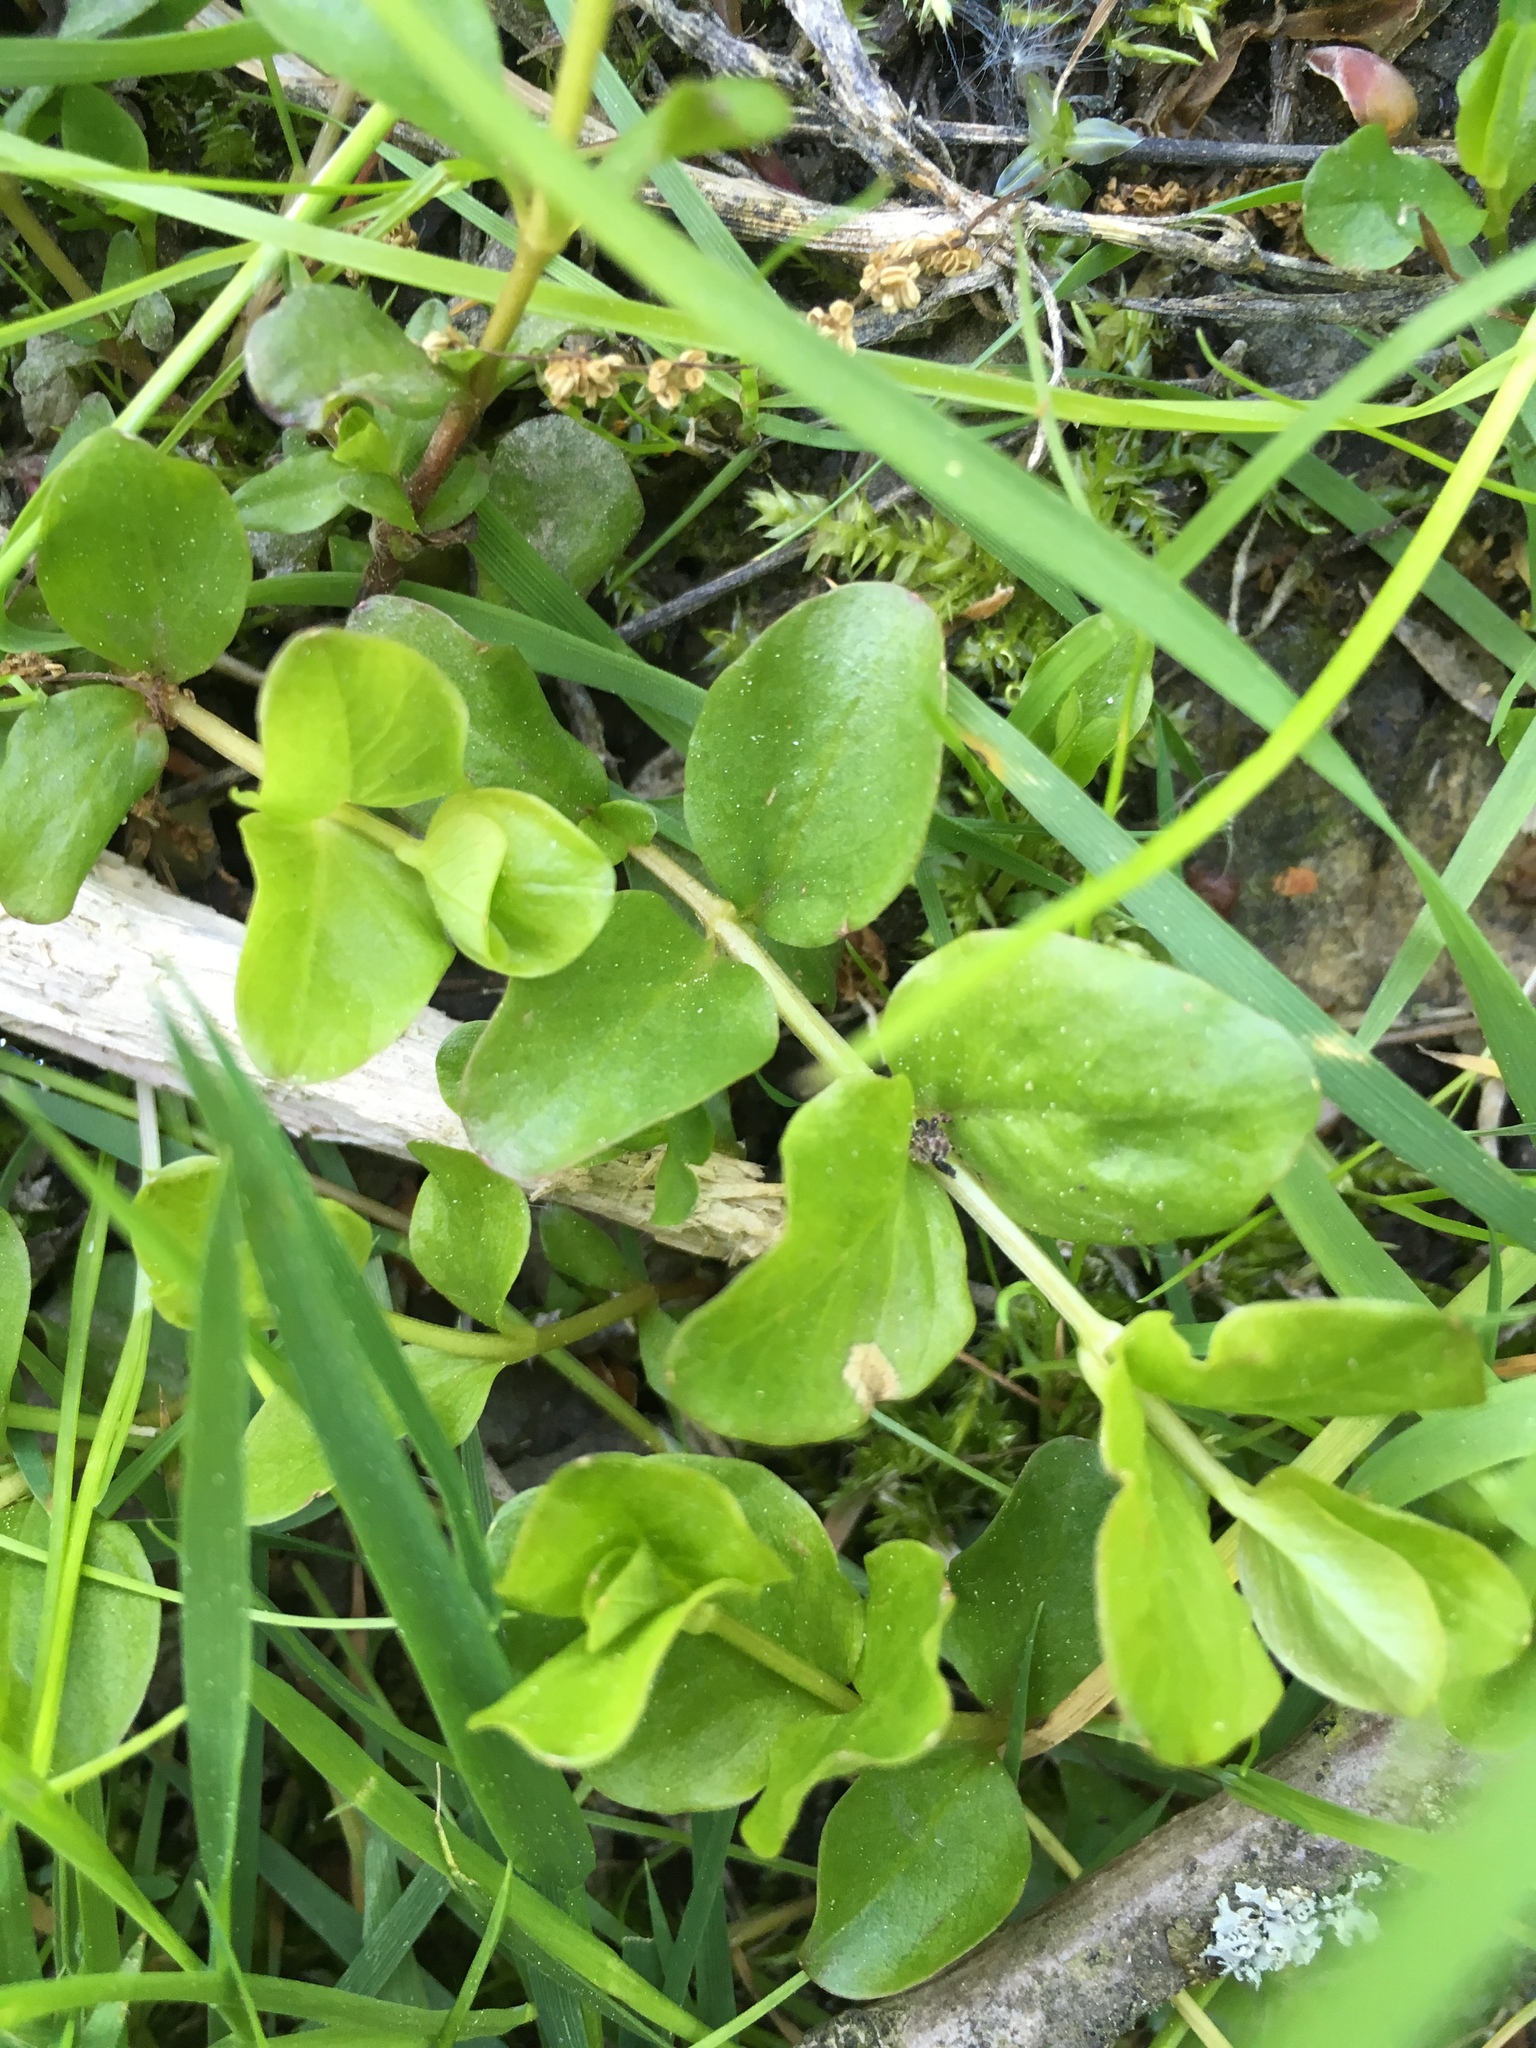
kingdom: Plantae
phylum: Tracheophyta
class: Magnoliopsida
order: Ericales
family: Primulaceae
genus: Lysimachia
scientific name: Lysimachia nummularia
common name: Moneywort
